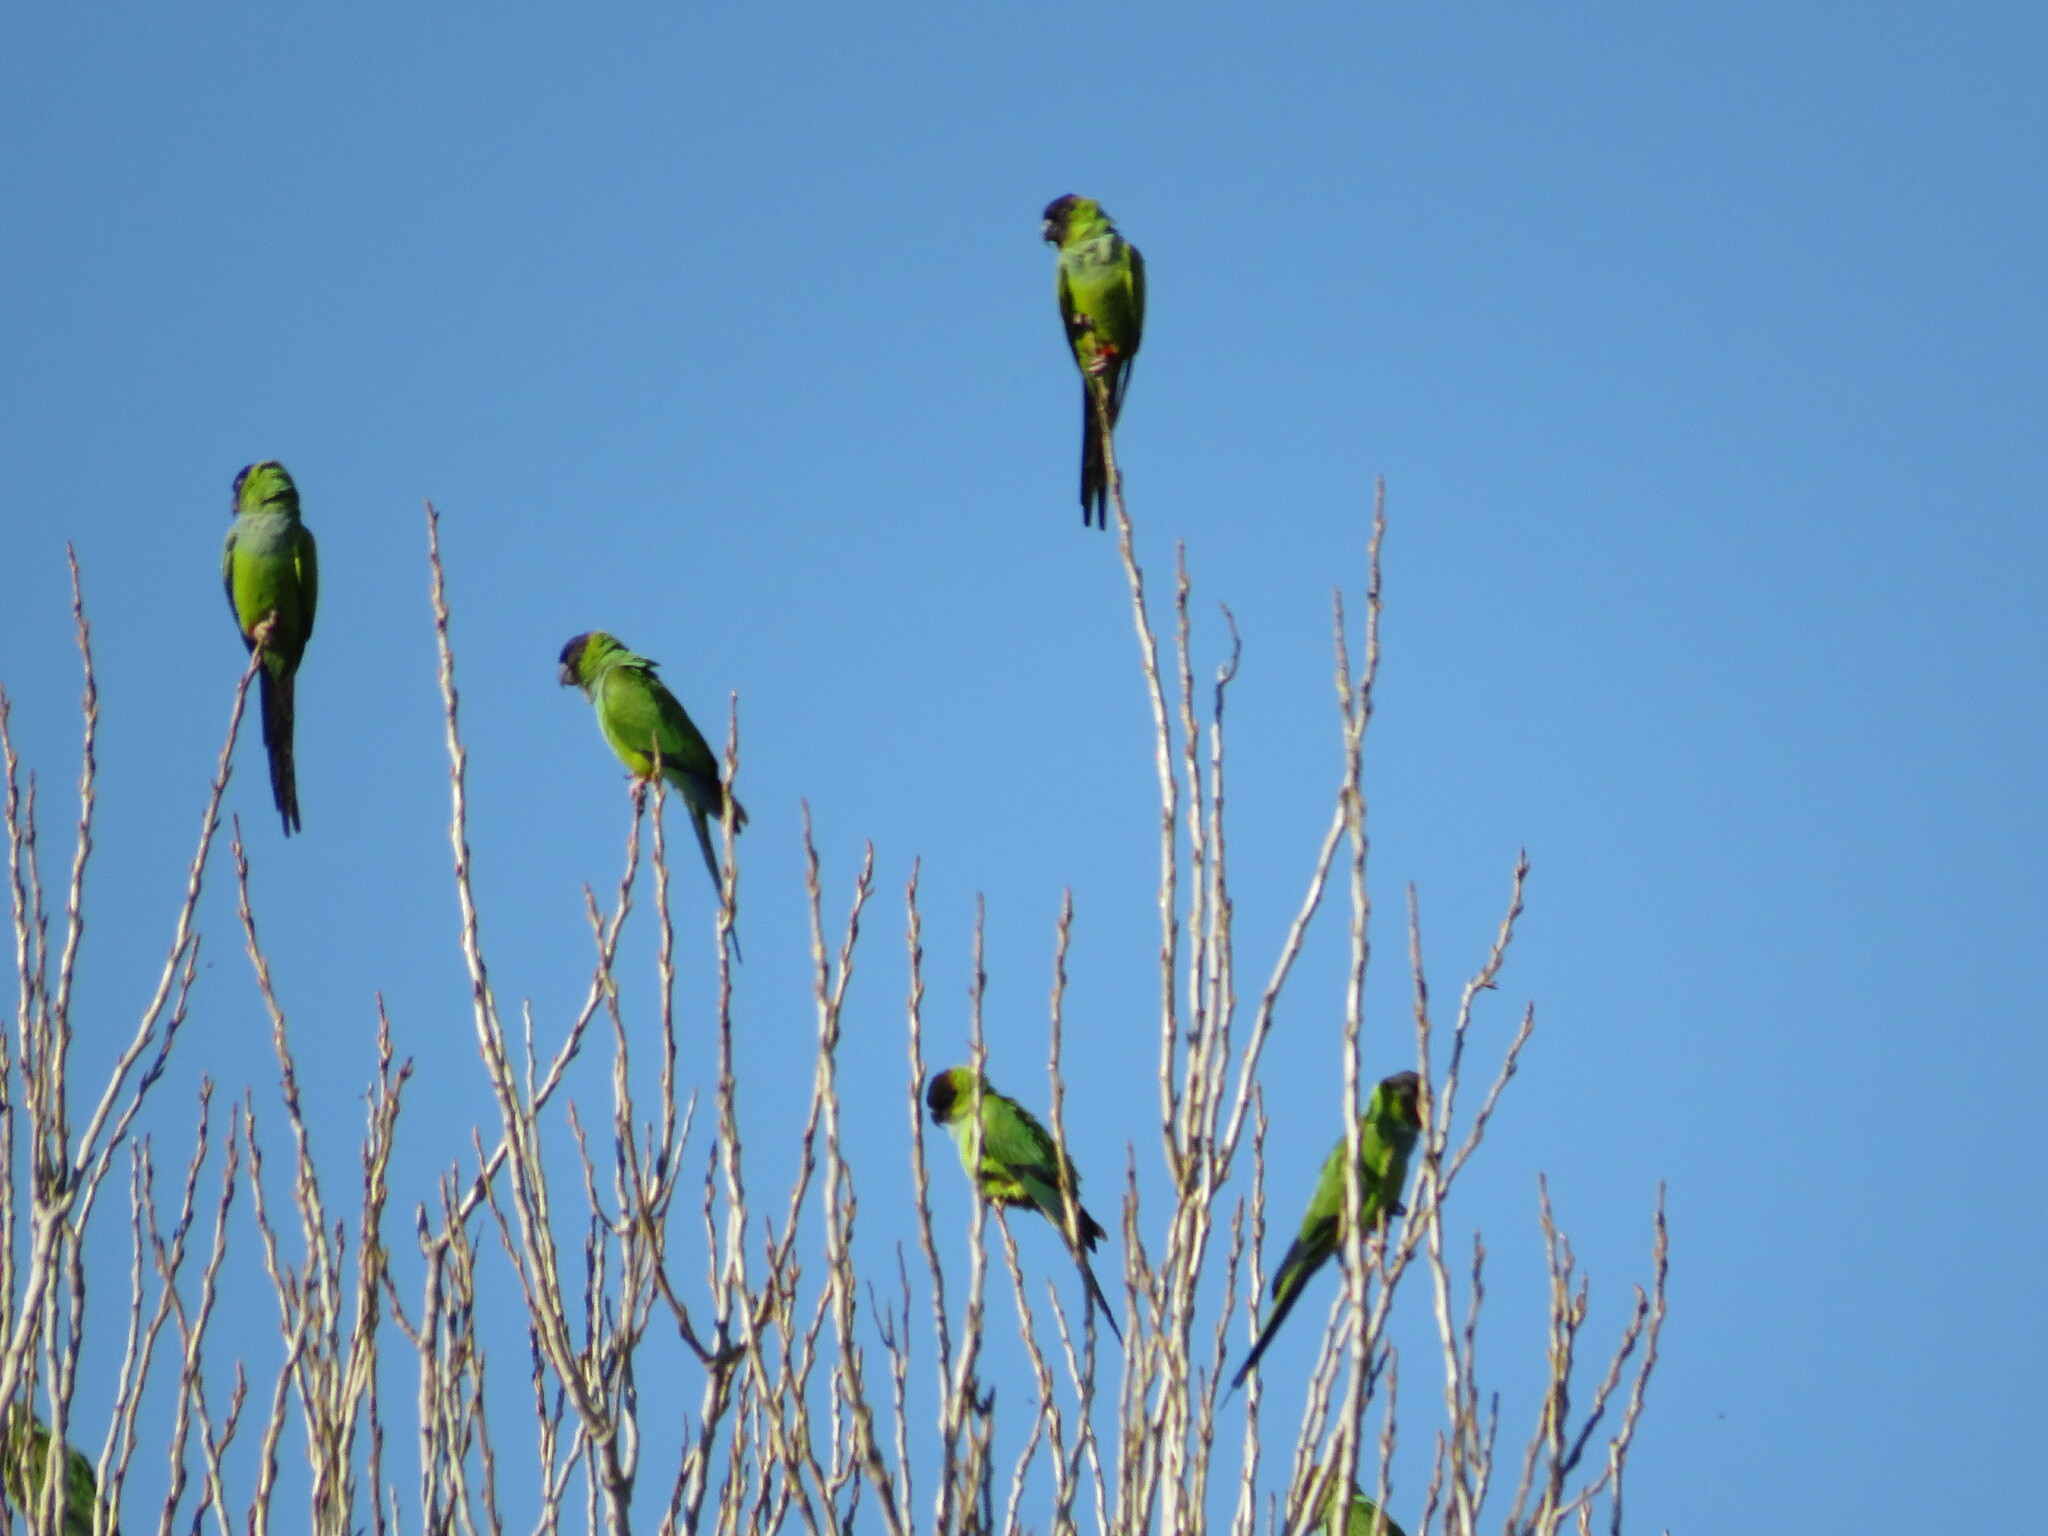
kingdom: Animalia
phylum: Chordata
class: Aves
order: Psittaciformes
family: Psittacidae
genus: Nandayus
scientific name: Nandayus nenday
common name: Nanday parakeet
